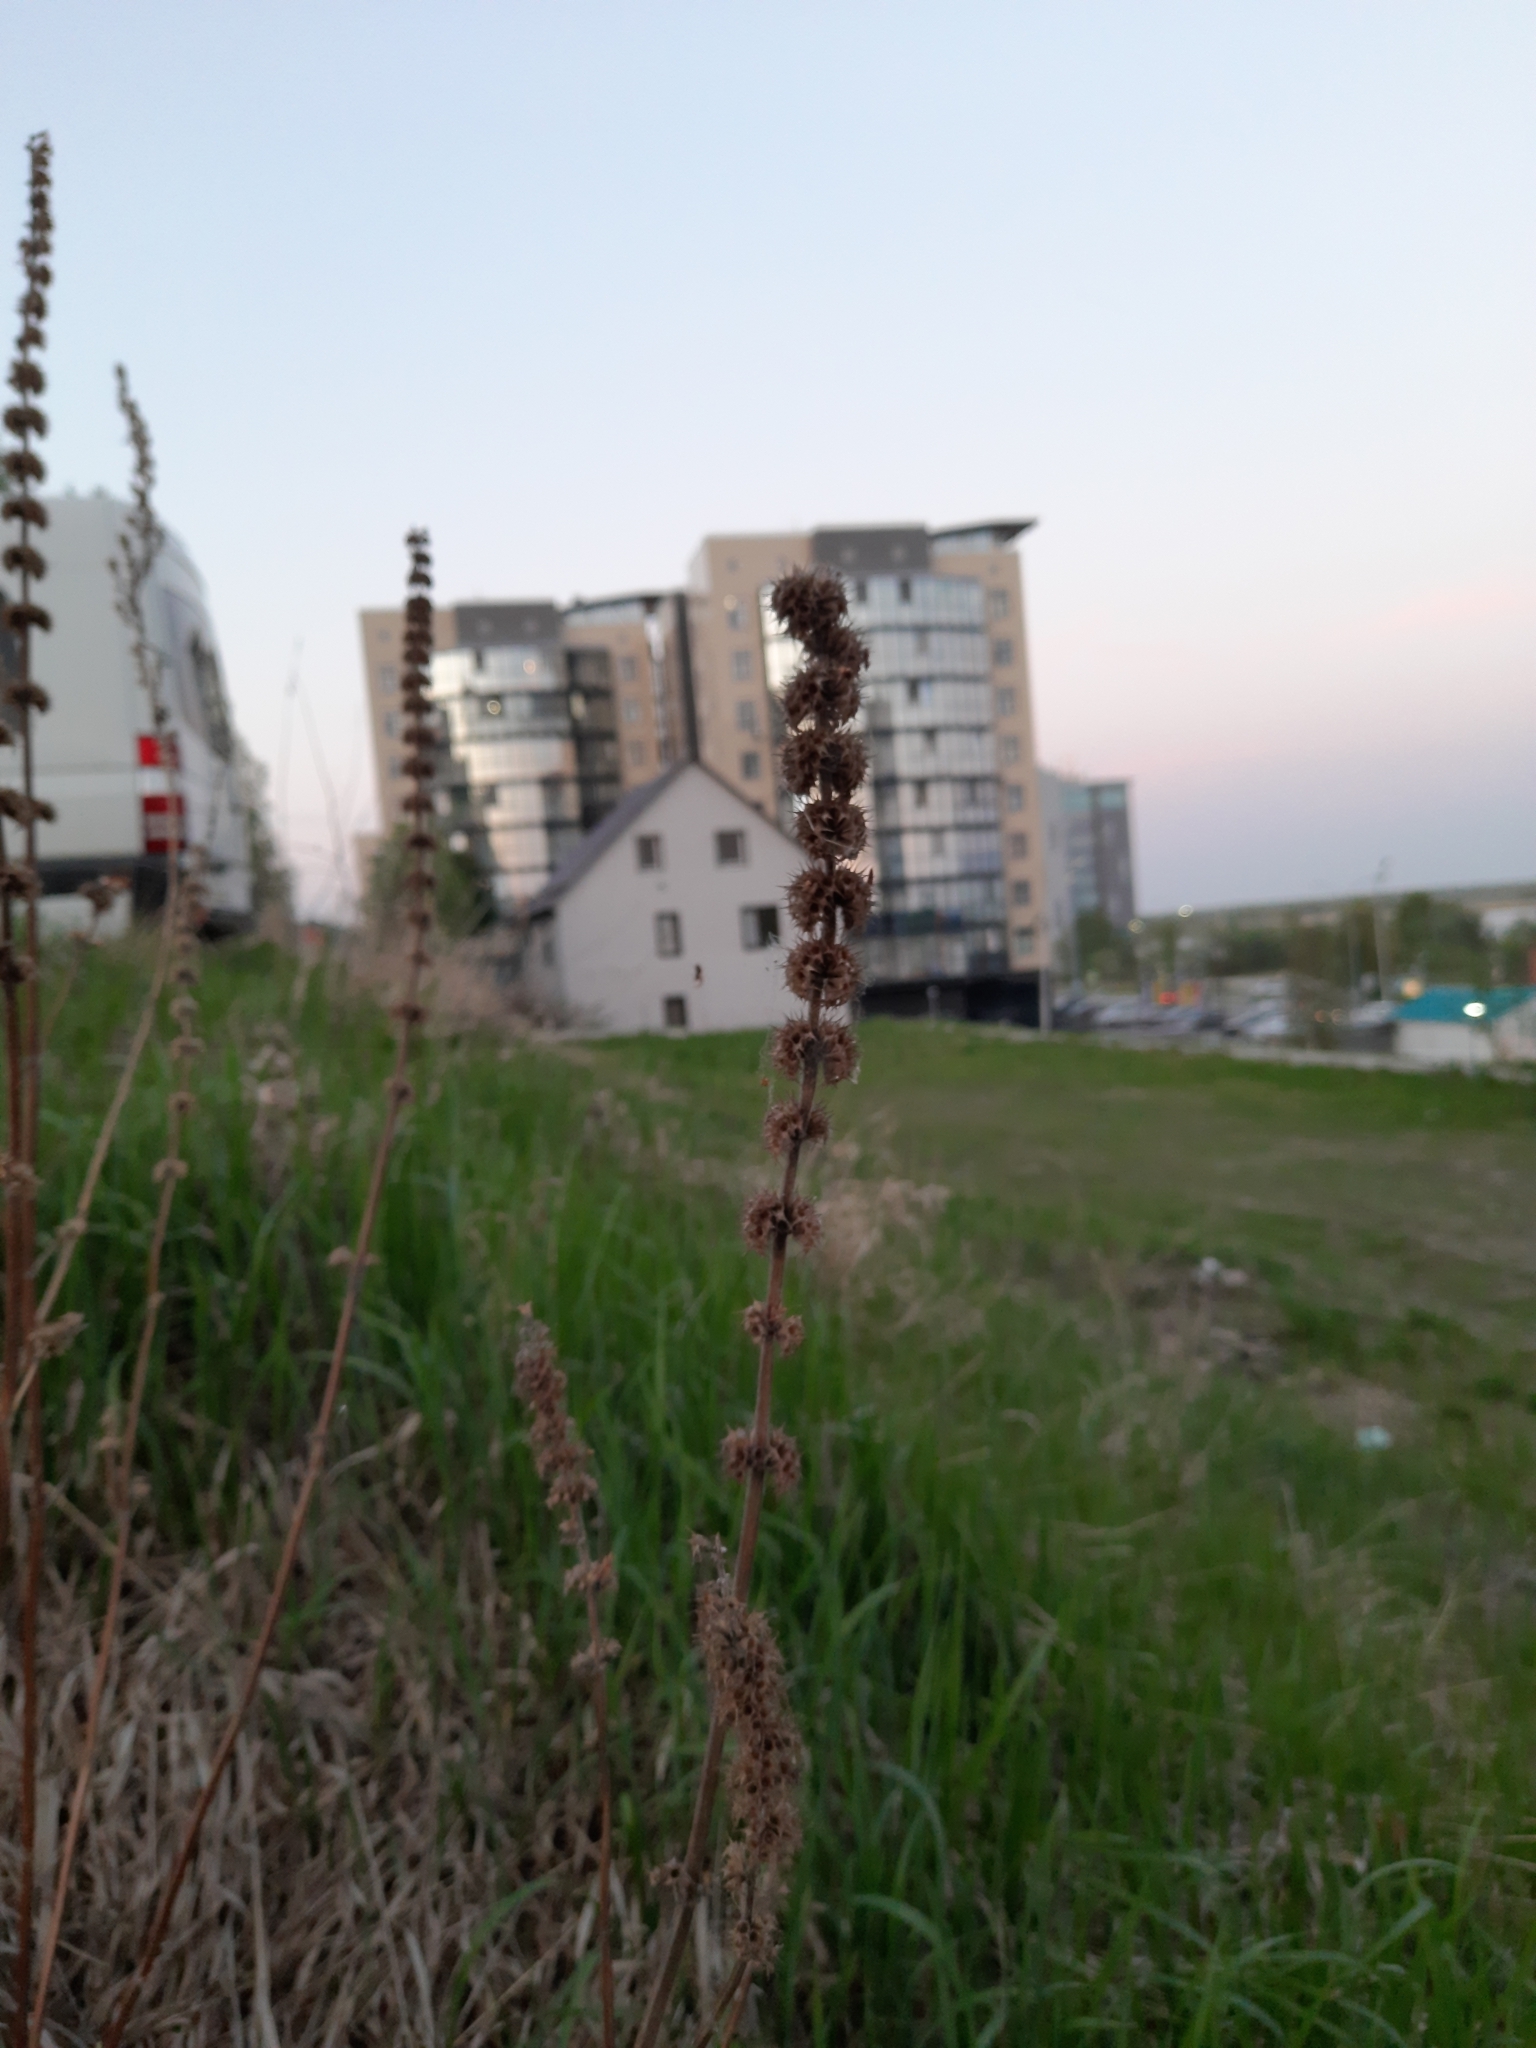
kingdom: Plantae
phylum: Tracheophyta
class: Magnoliopsida
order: Lamiales
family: Lamiaceae
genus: Leonurus
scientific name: Leonurus quinquelobatus
